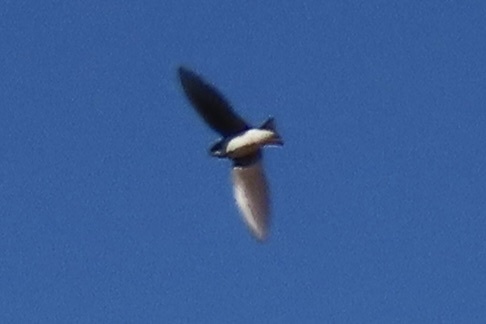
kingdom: Animalia
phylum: Chordata
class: Aves
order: Passeriformes
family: Hirundinidae
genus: Tachycineta
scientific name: Tachycineta bicolor
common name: Tree swallow
